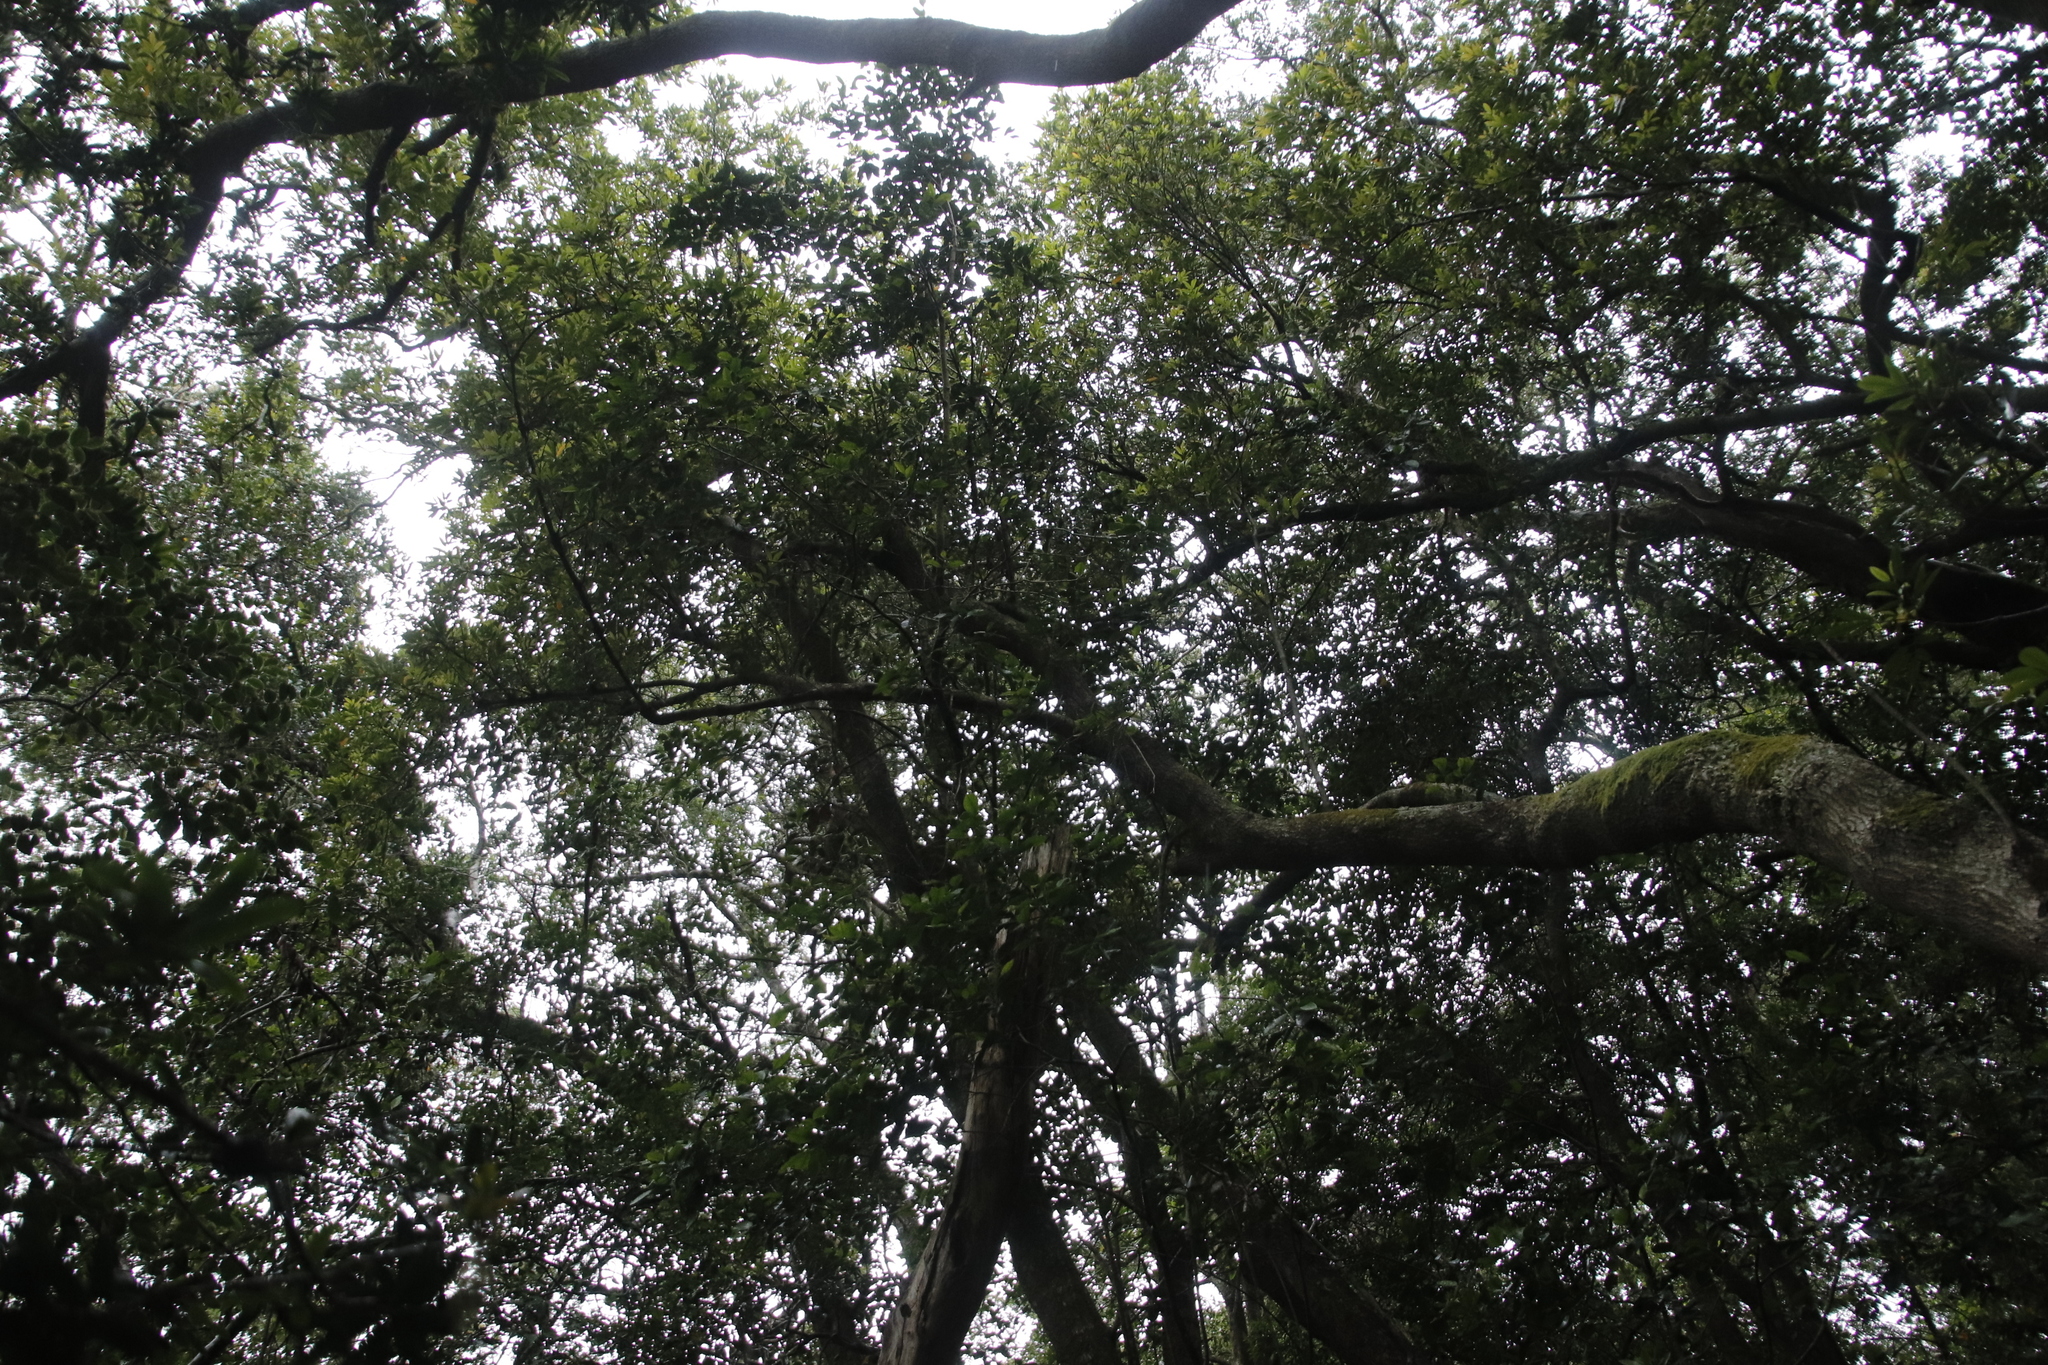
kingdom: Plantae
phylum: Tracheophyta
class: Magnoliopsida
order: Oxalidales
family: Cunoniaceae
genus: Cunonia
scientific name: Cunonia capensis
